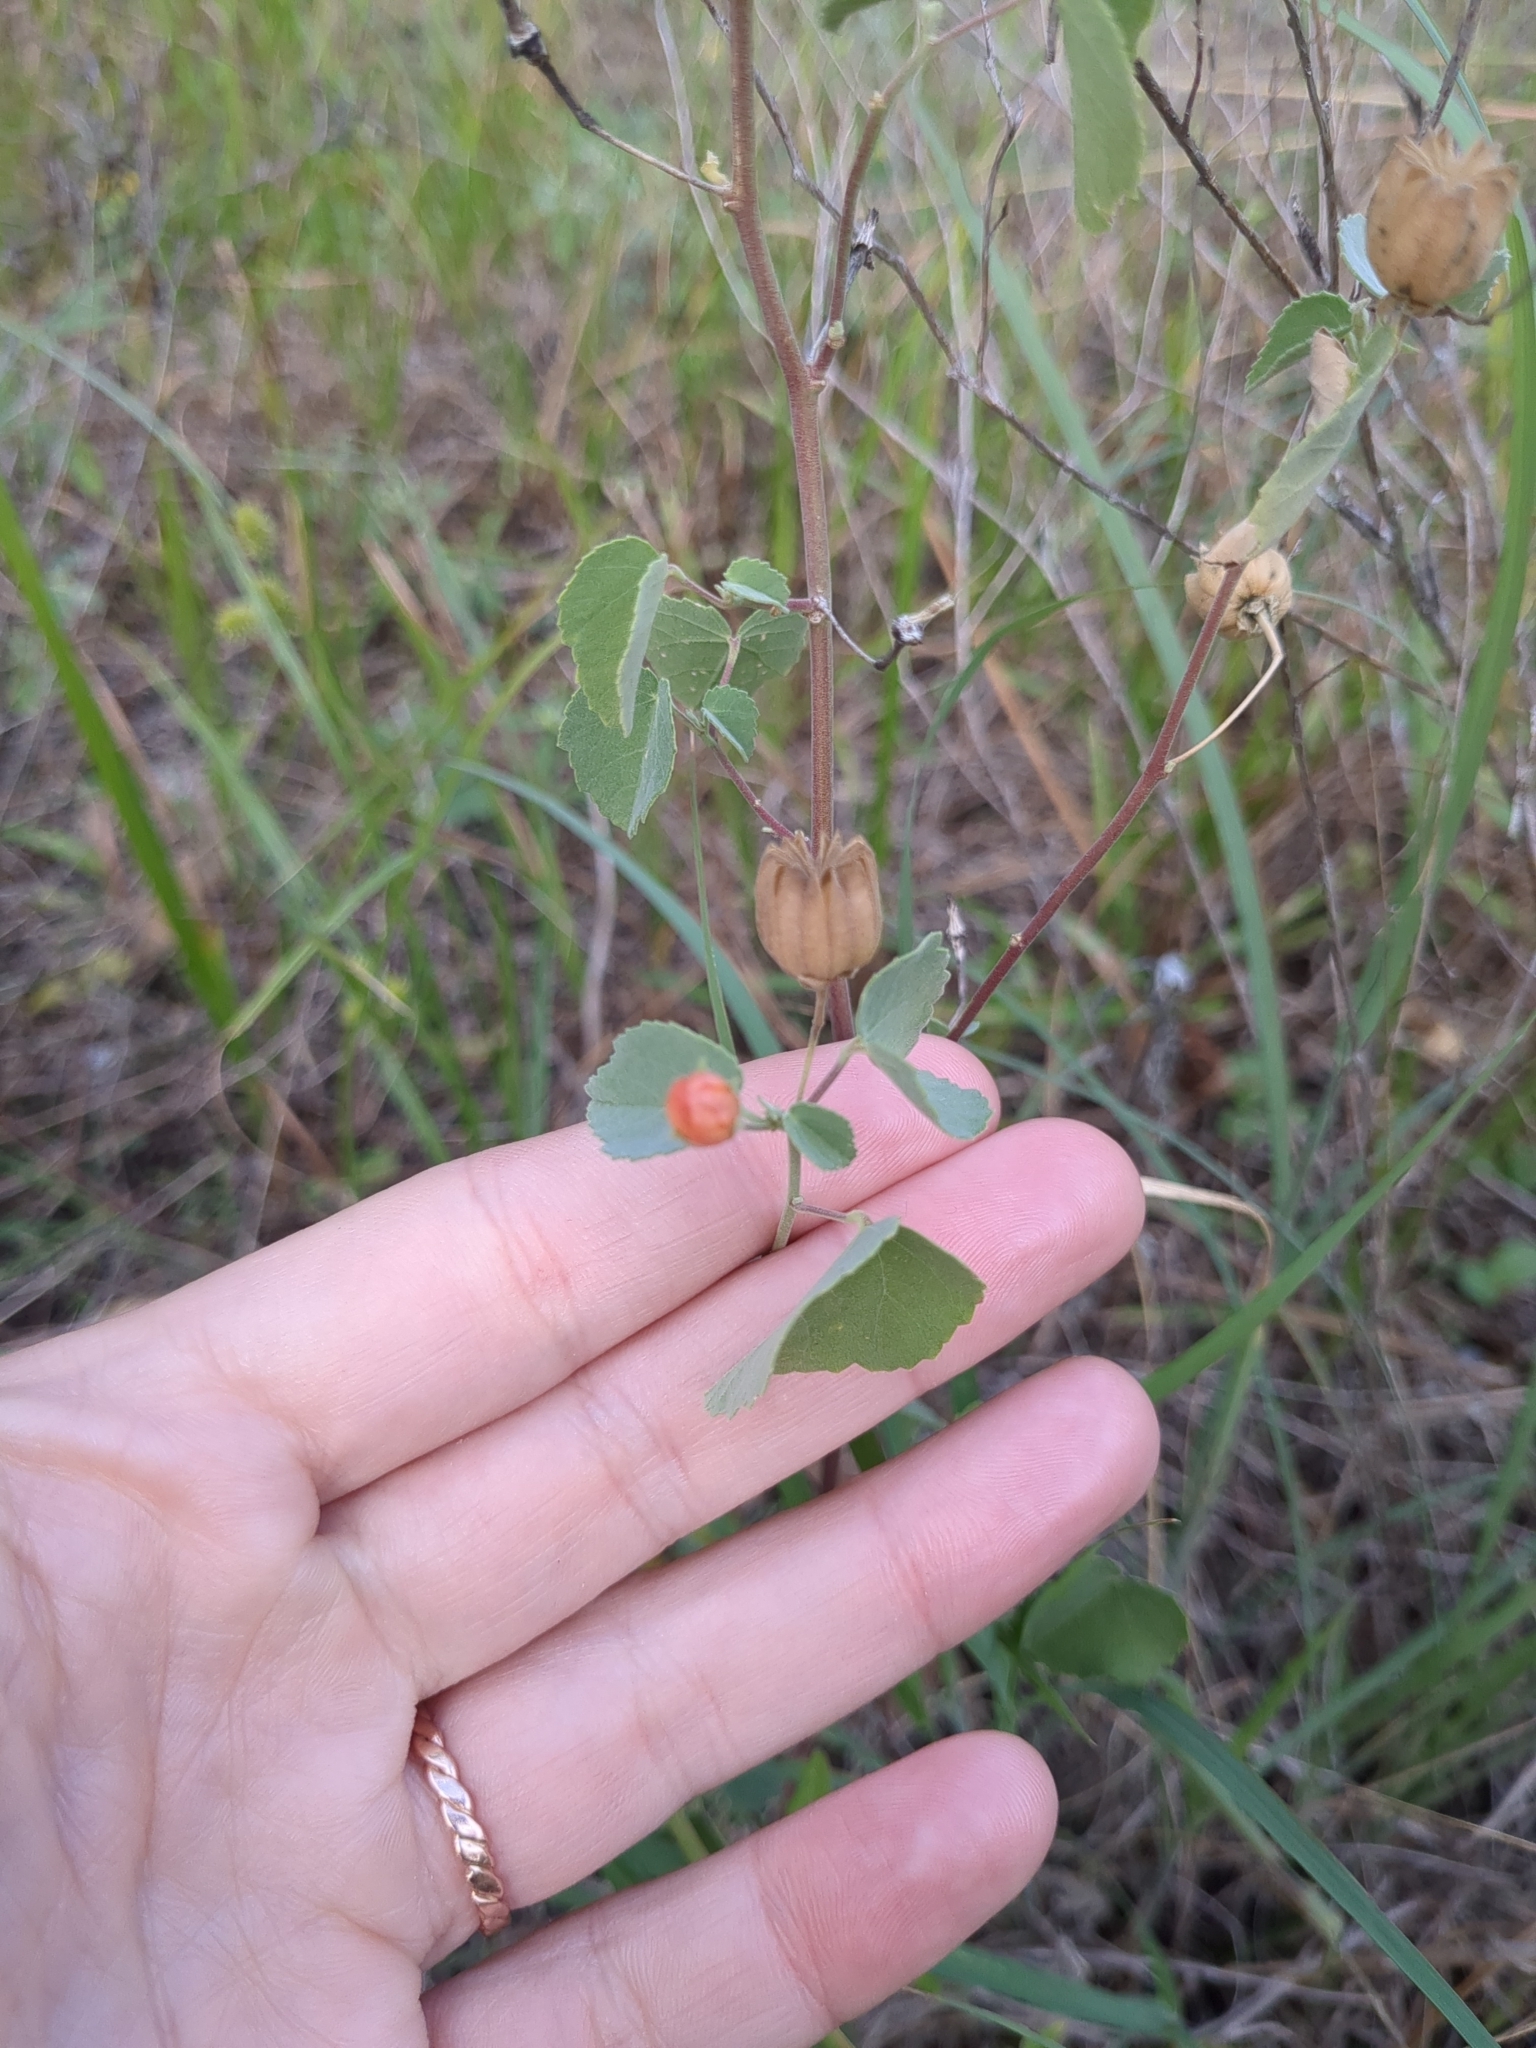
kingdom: Plantae
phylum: Tracheophyta
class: Magnoliopsida
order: Malvales
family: Malvaceae
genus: Abutilon
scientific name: Abutilon fruticosum
